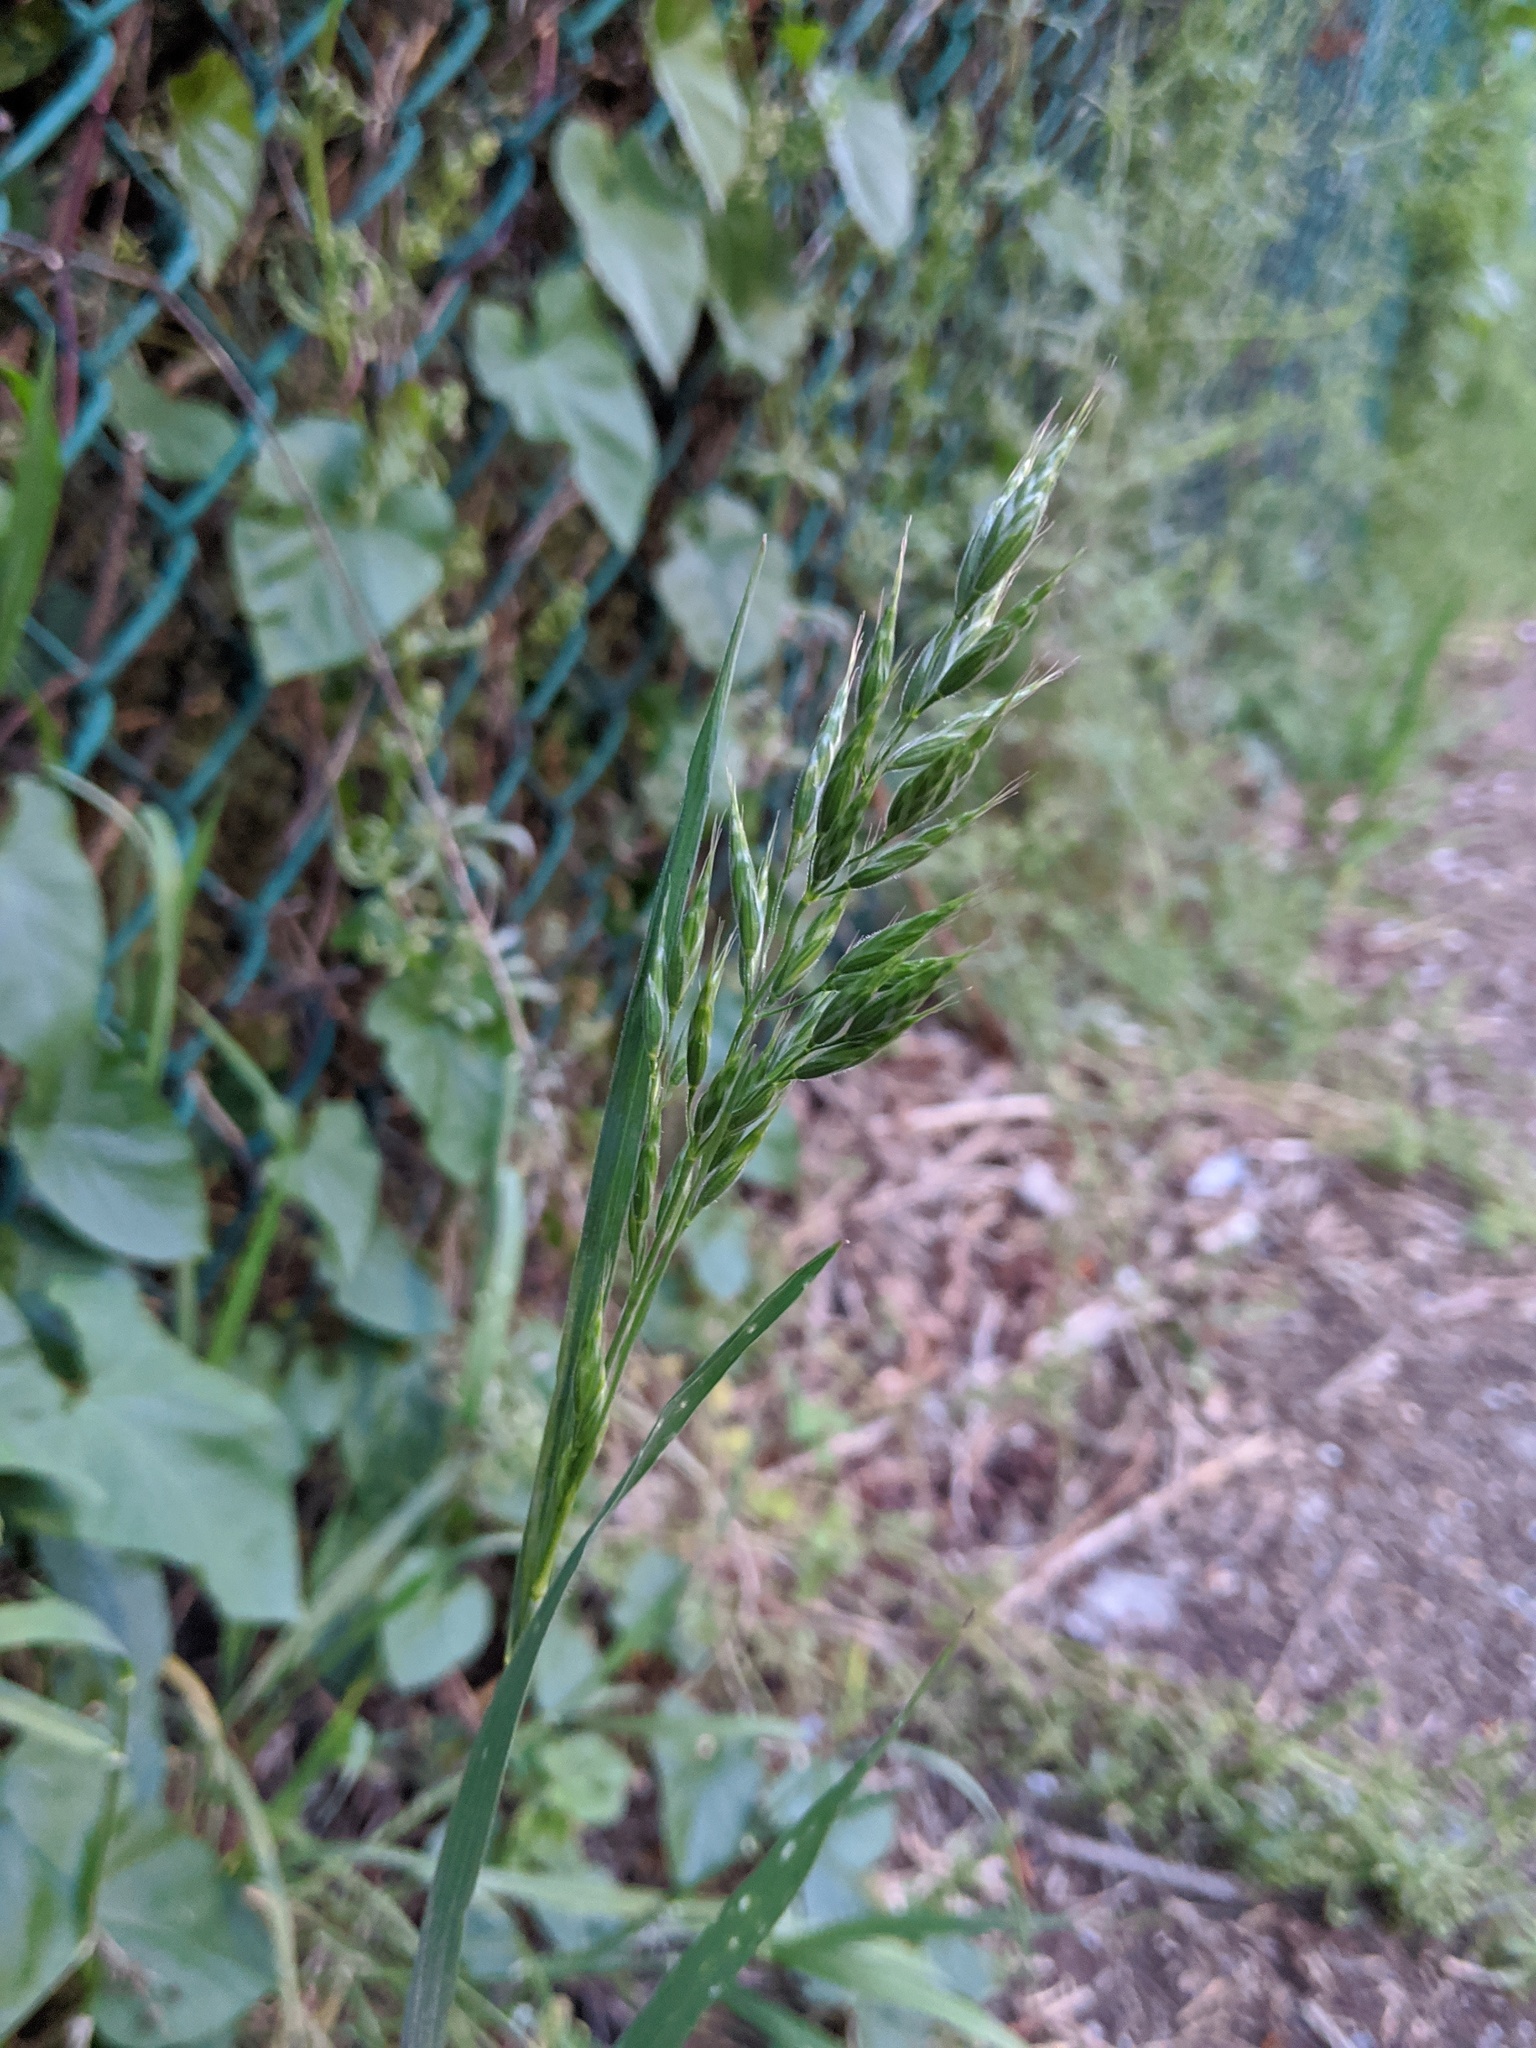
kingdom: Plantae
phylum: Tracheophyta
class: Liliopsida
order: Poales
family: Poaceae
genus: Bromus
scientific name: Bromus hordeaceus
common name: Soft brome
